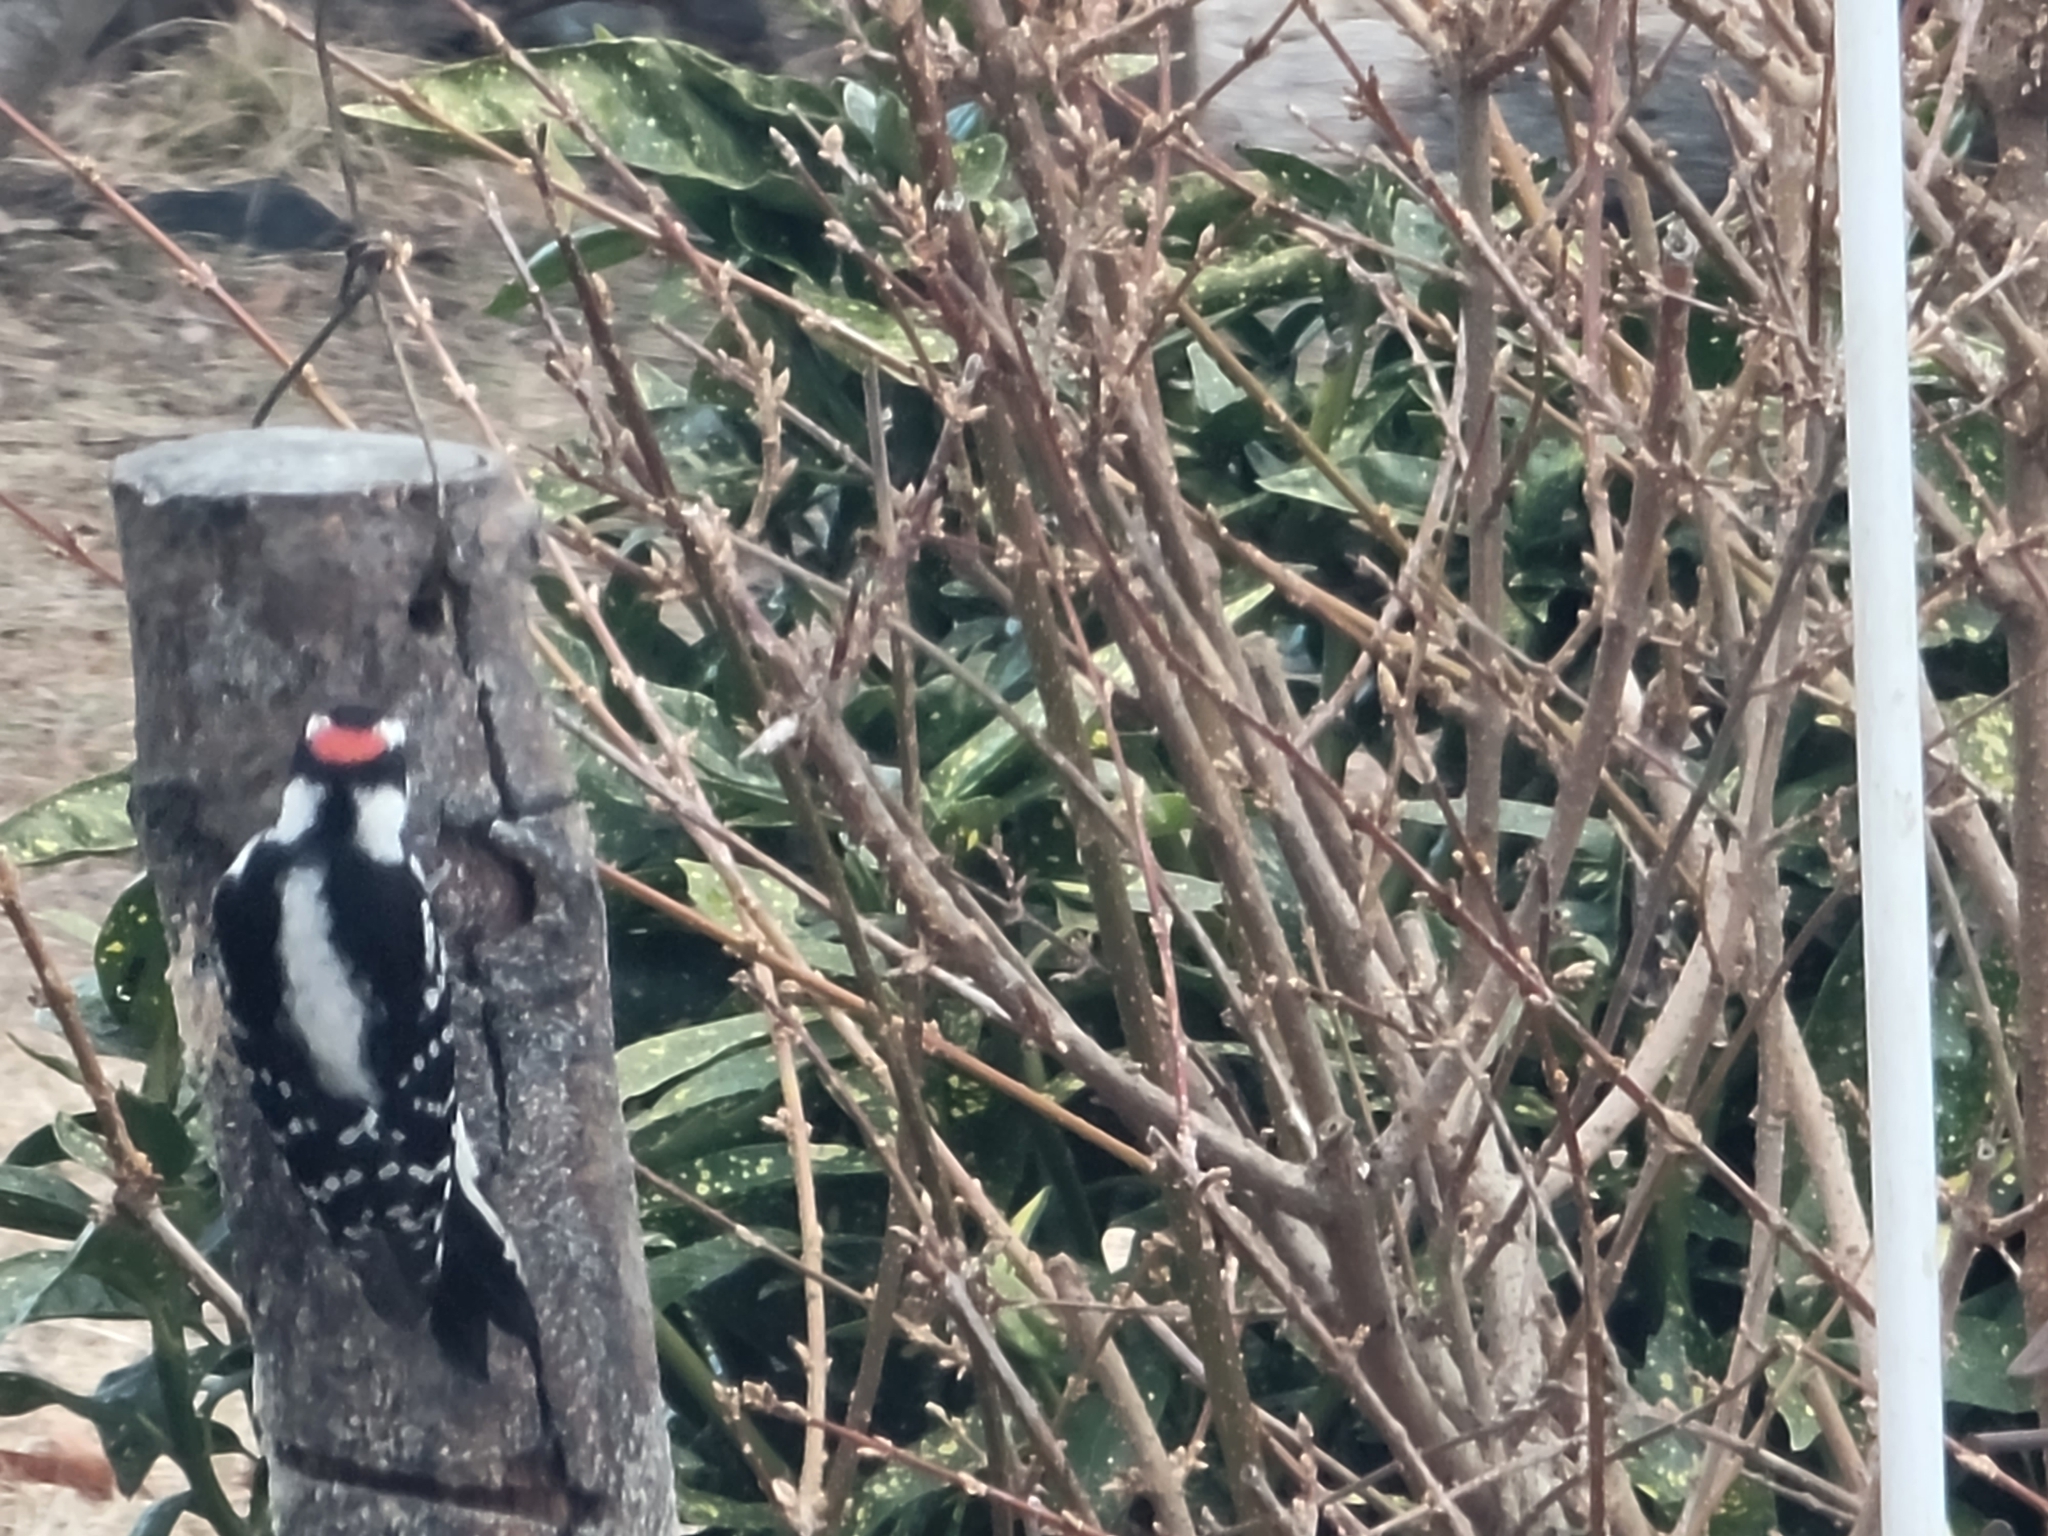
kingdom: Animalia
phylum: Chordata
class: Aves
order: Piciformes
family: Picidae
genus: Dryobates
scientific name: Dryobates pubescens
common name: Downy woodpecker
